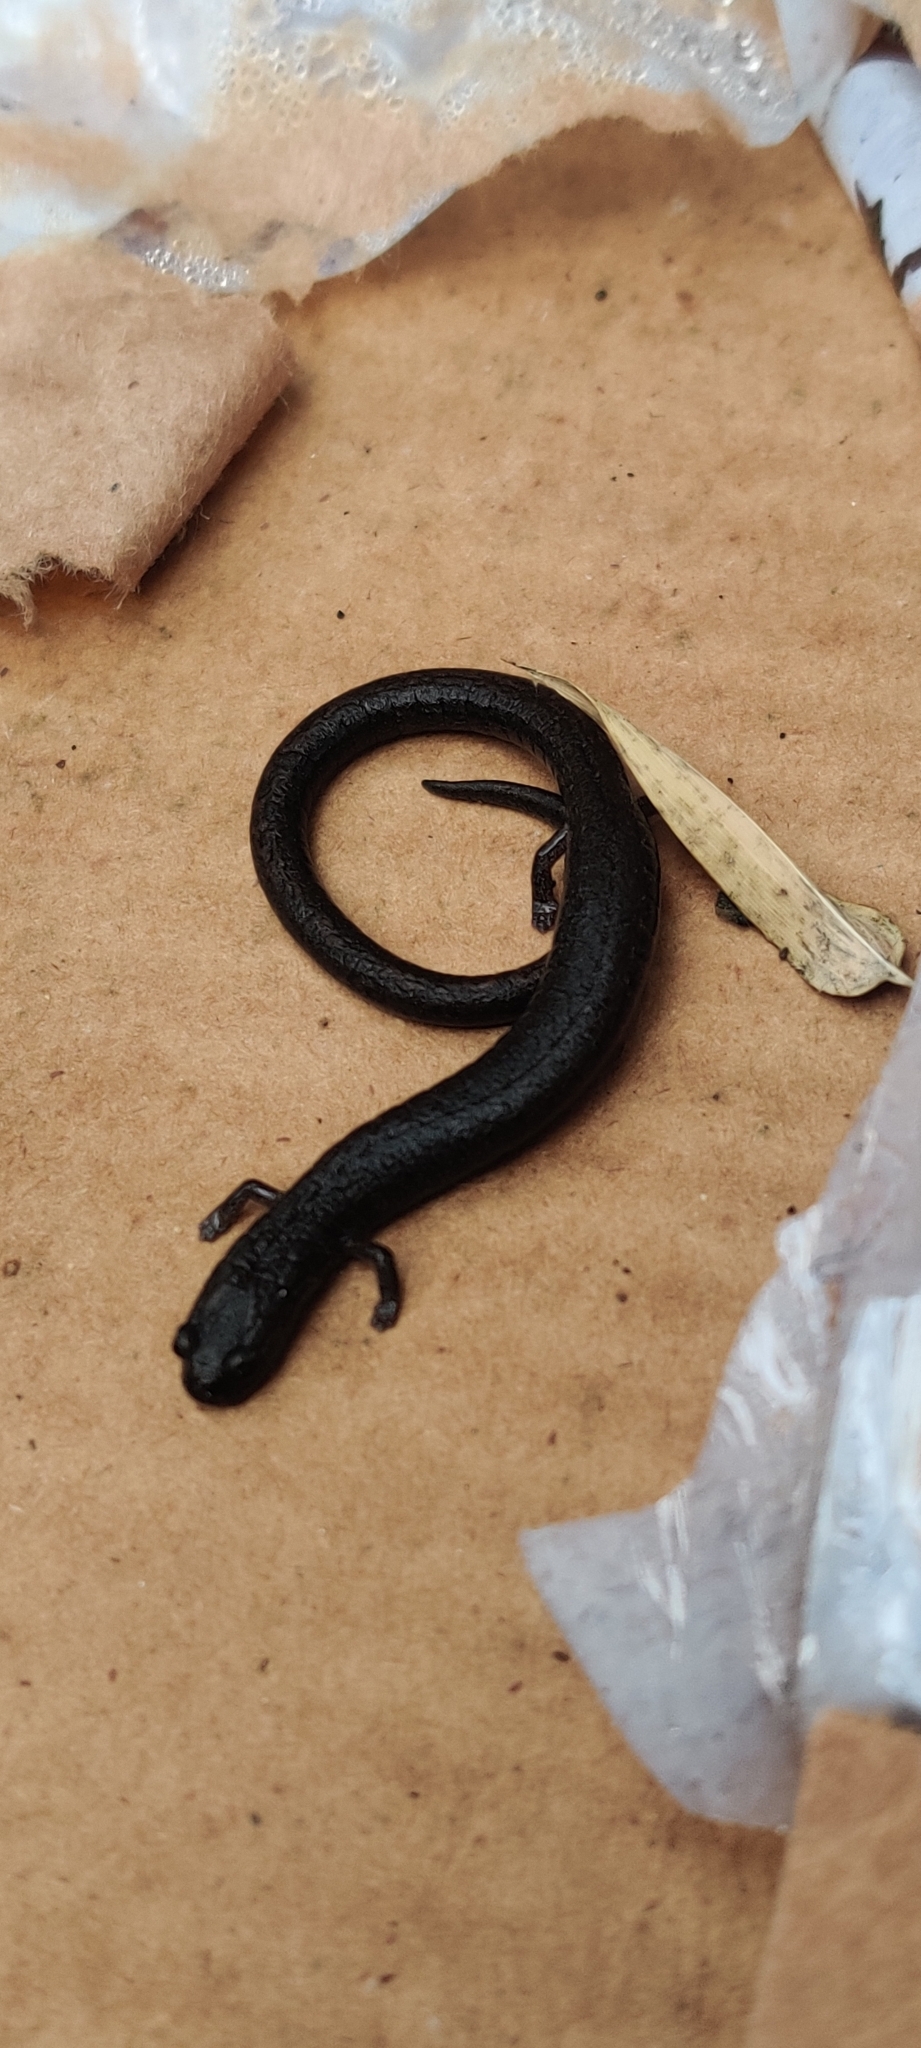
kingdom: Animalia
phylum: Chordata
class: Amphibia
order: Caudata
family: Plethodontidae
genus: Batrachoseps
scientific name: Batrachoseps attenuatus
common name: California slender salamander
